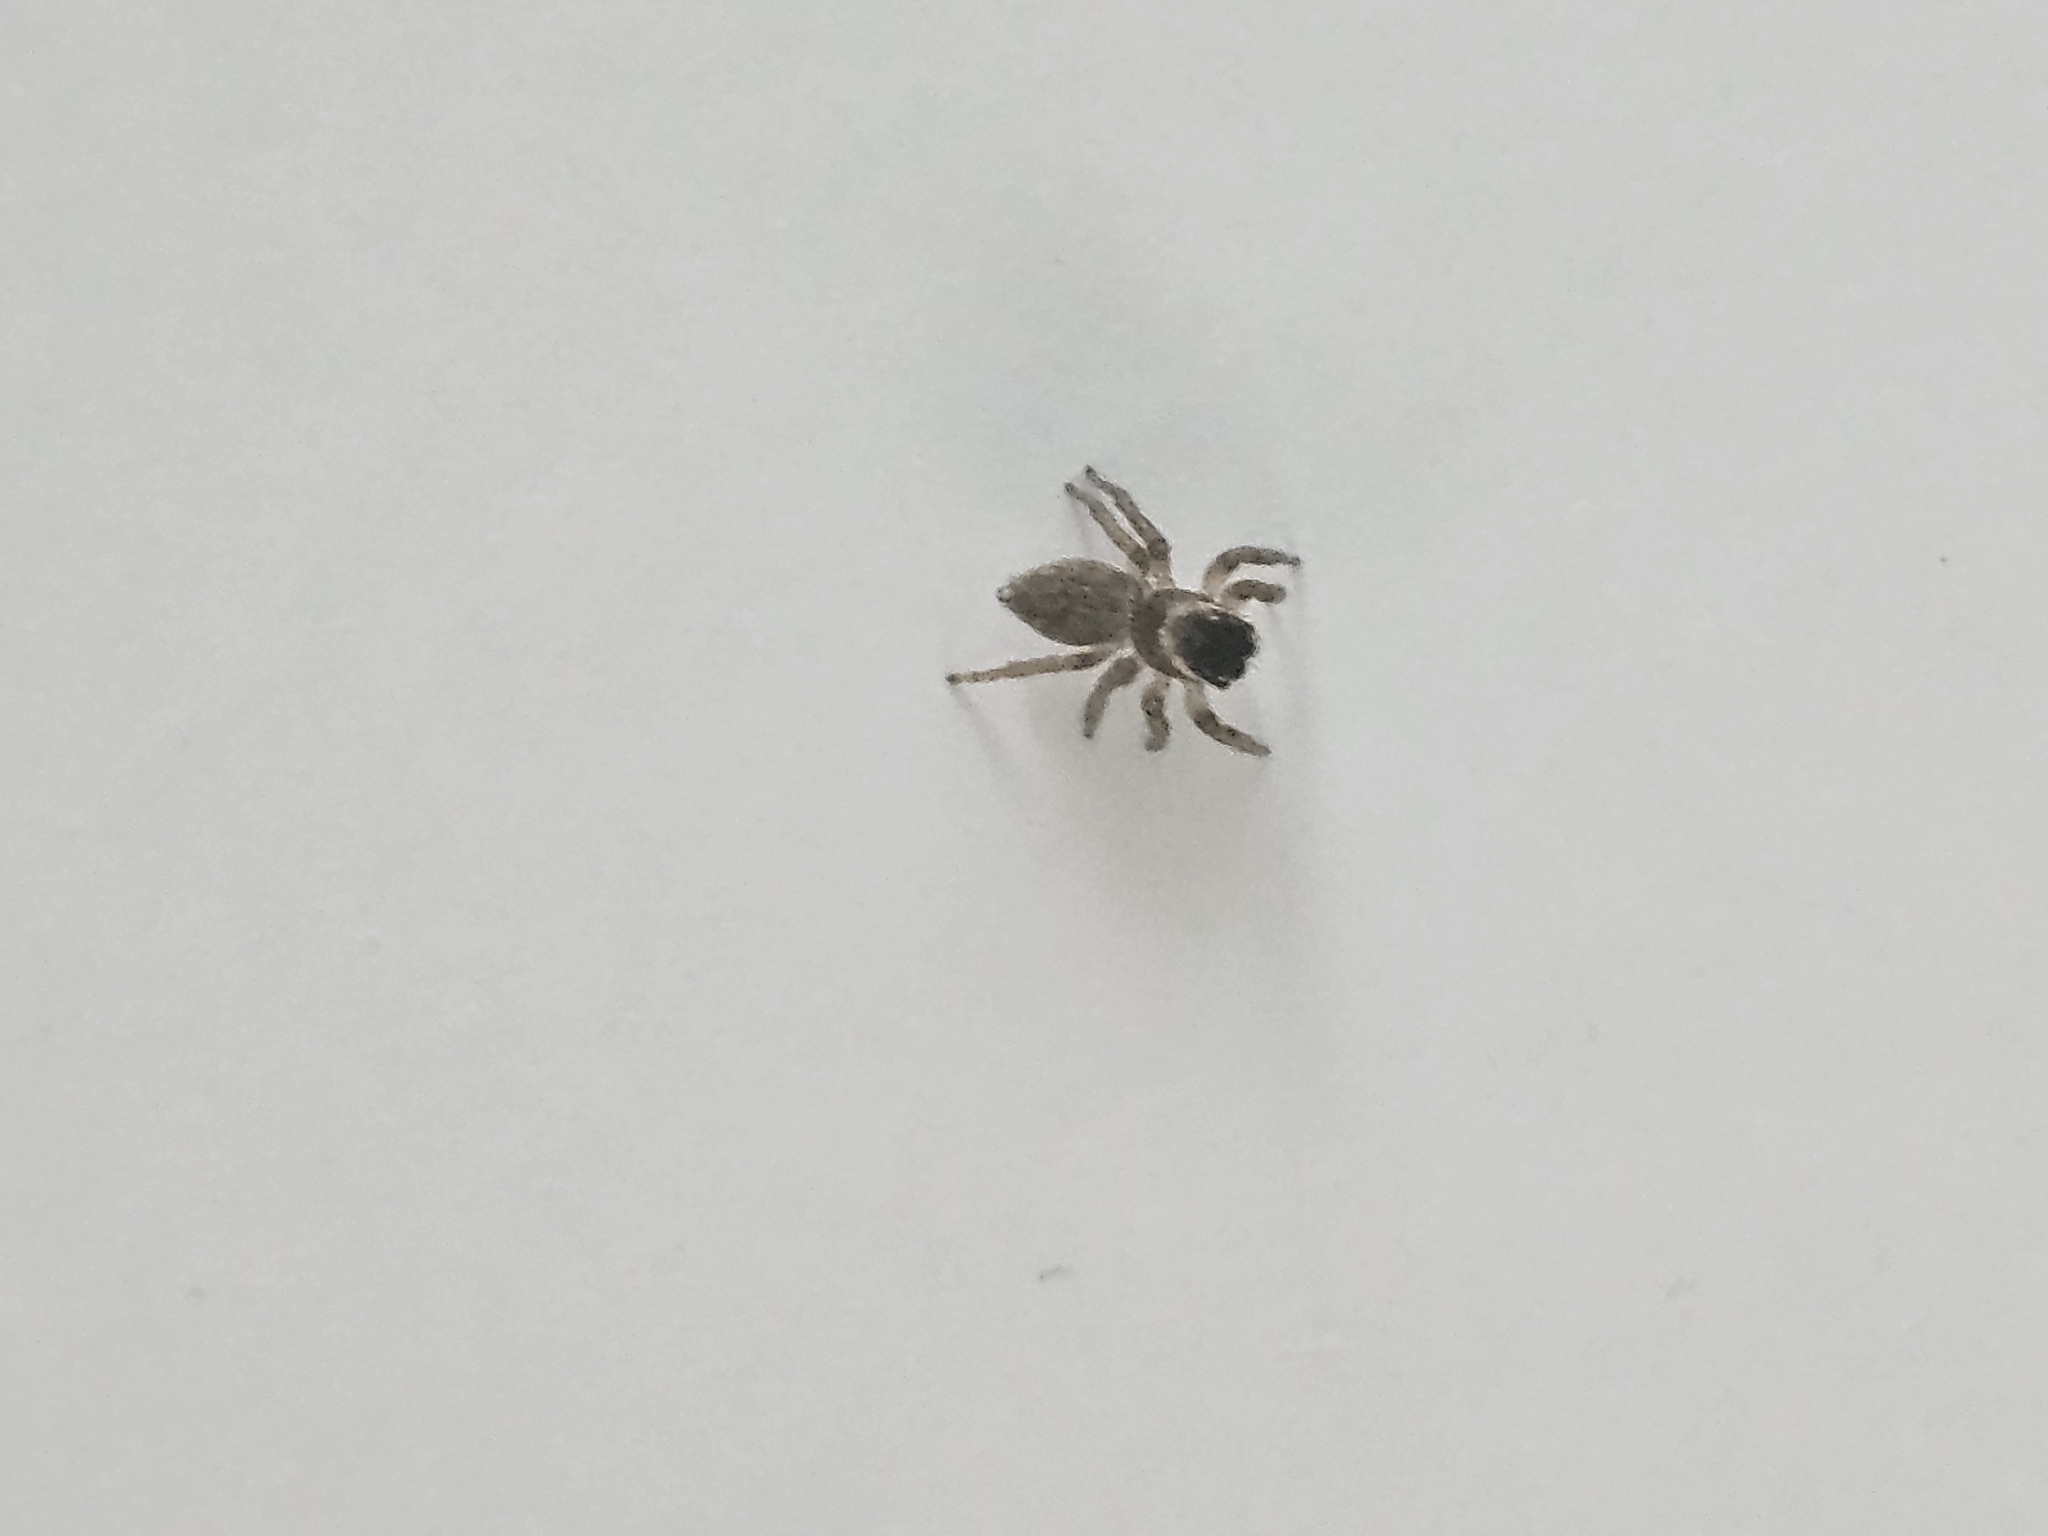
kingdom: Animalia
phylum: Arthropoda
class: Arachnida
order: Araneae
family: Salticidae
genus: Maratus
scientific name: Maratus griseus
